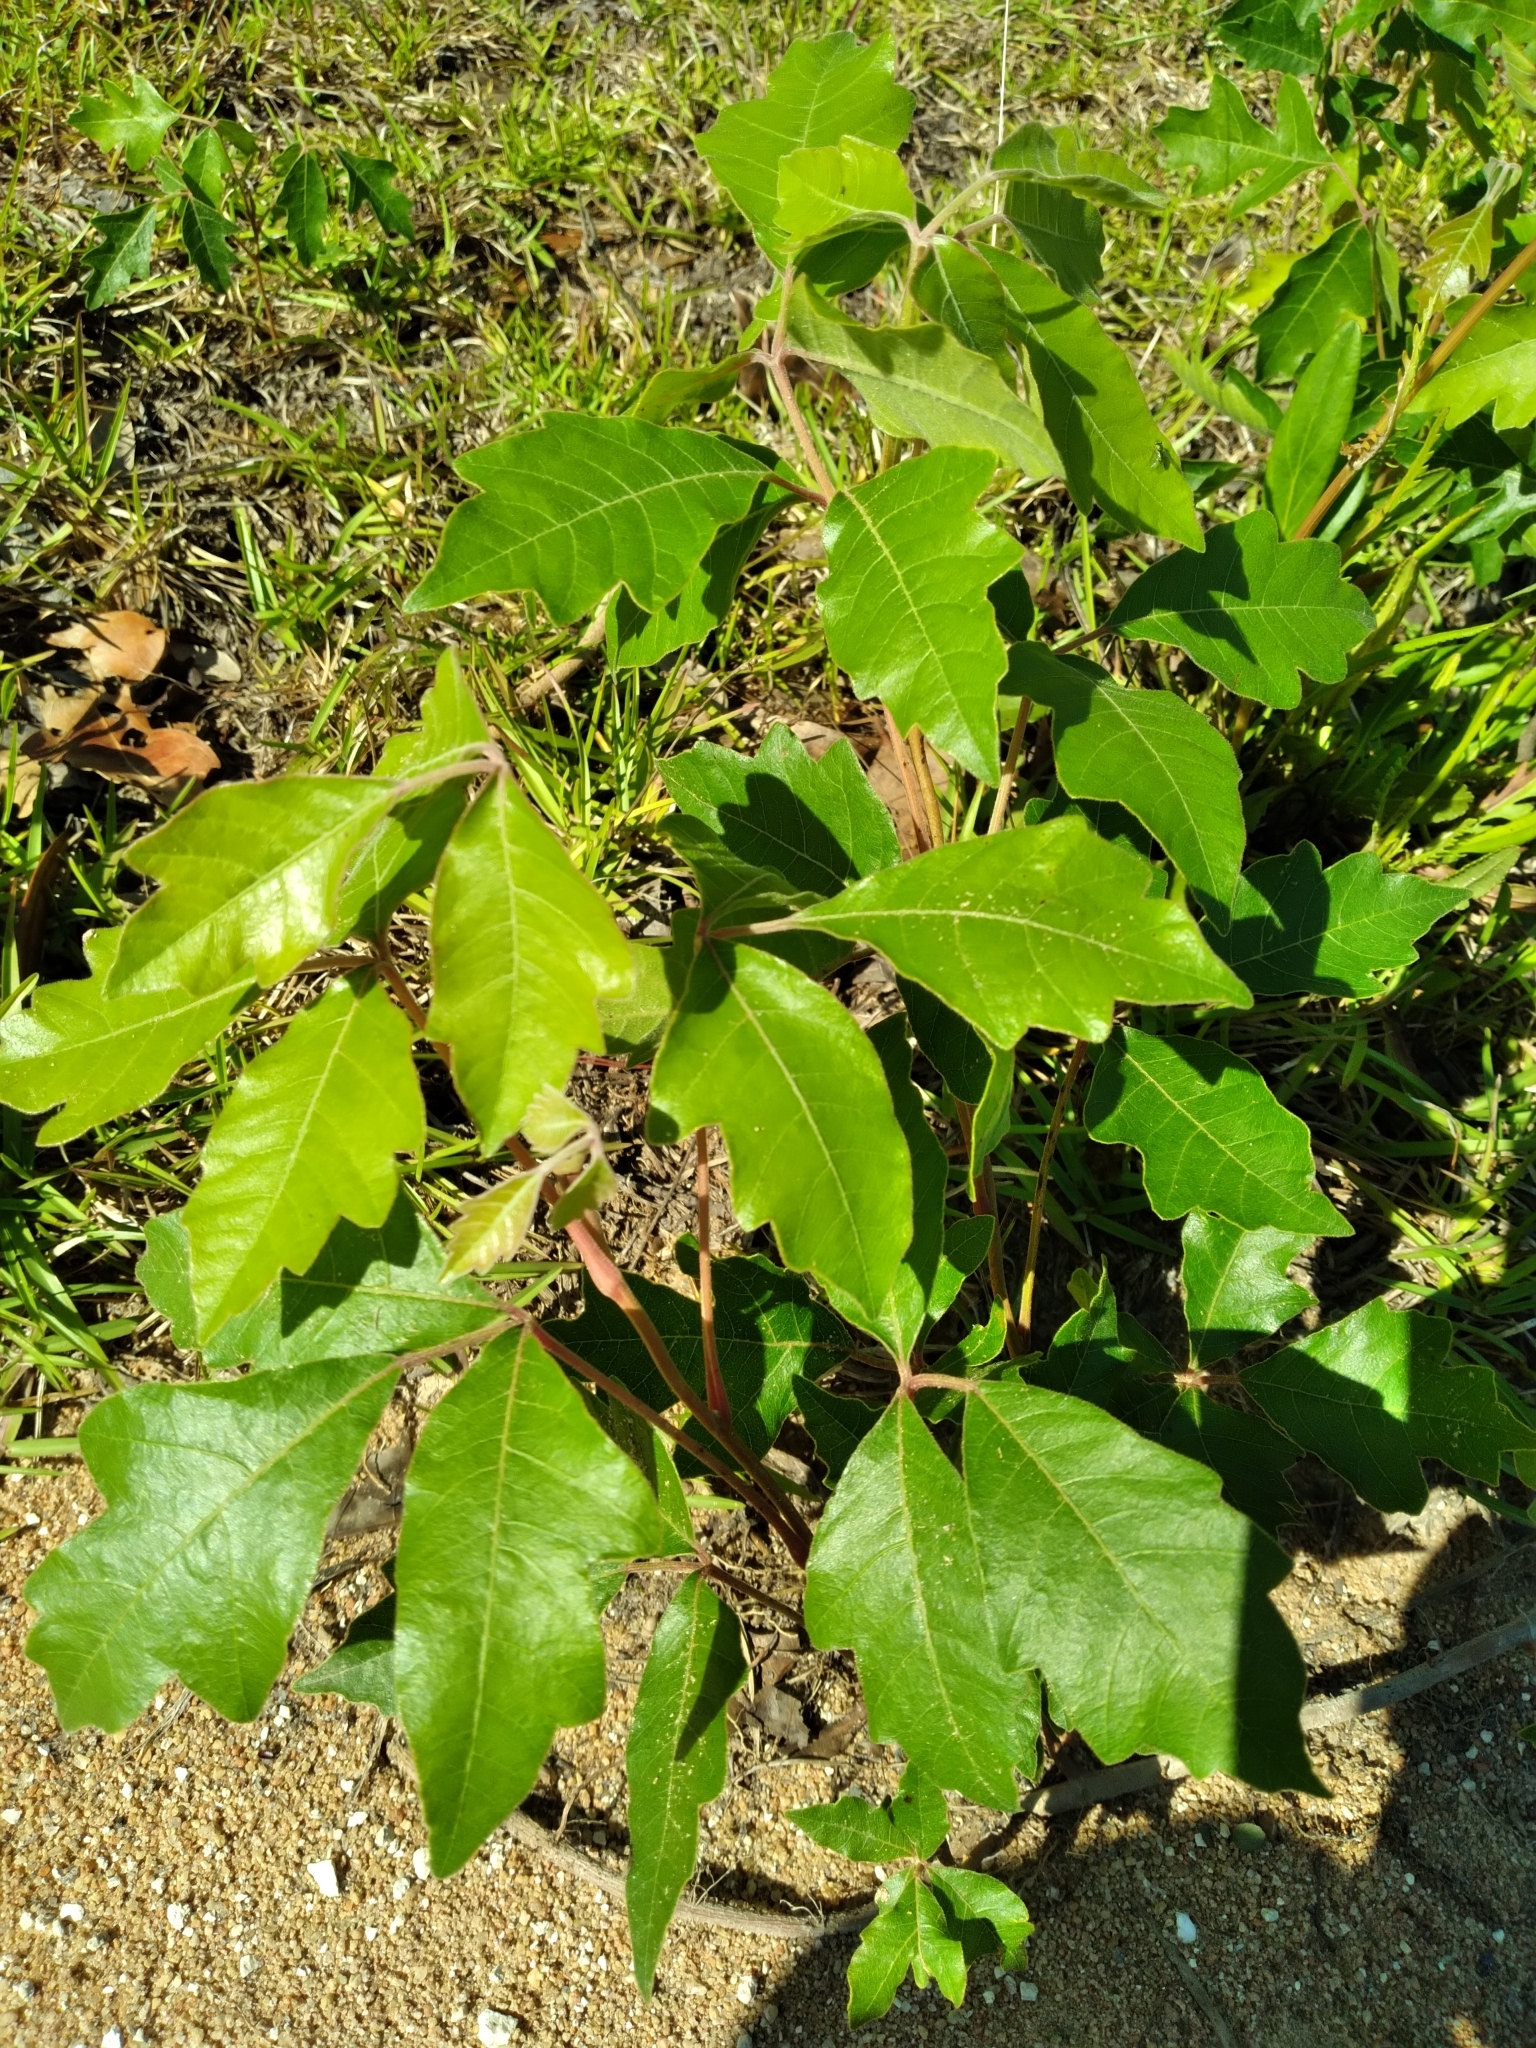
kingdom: Plantae
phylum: Tracheophyta
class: Magnoliopsida
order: Sapindales
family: Anacardiaceae
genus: Toxicodendron
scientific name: Toxicodendron pubescens
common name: Eastern poison-oak
